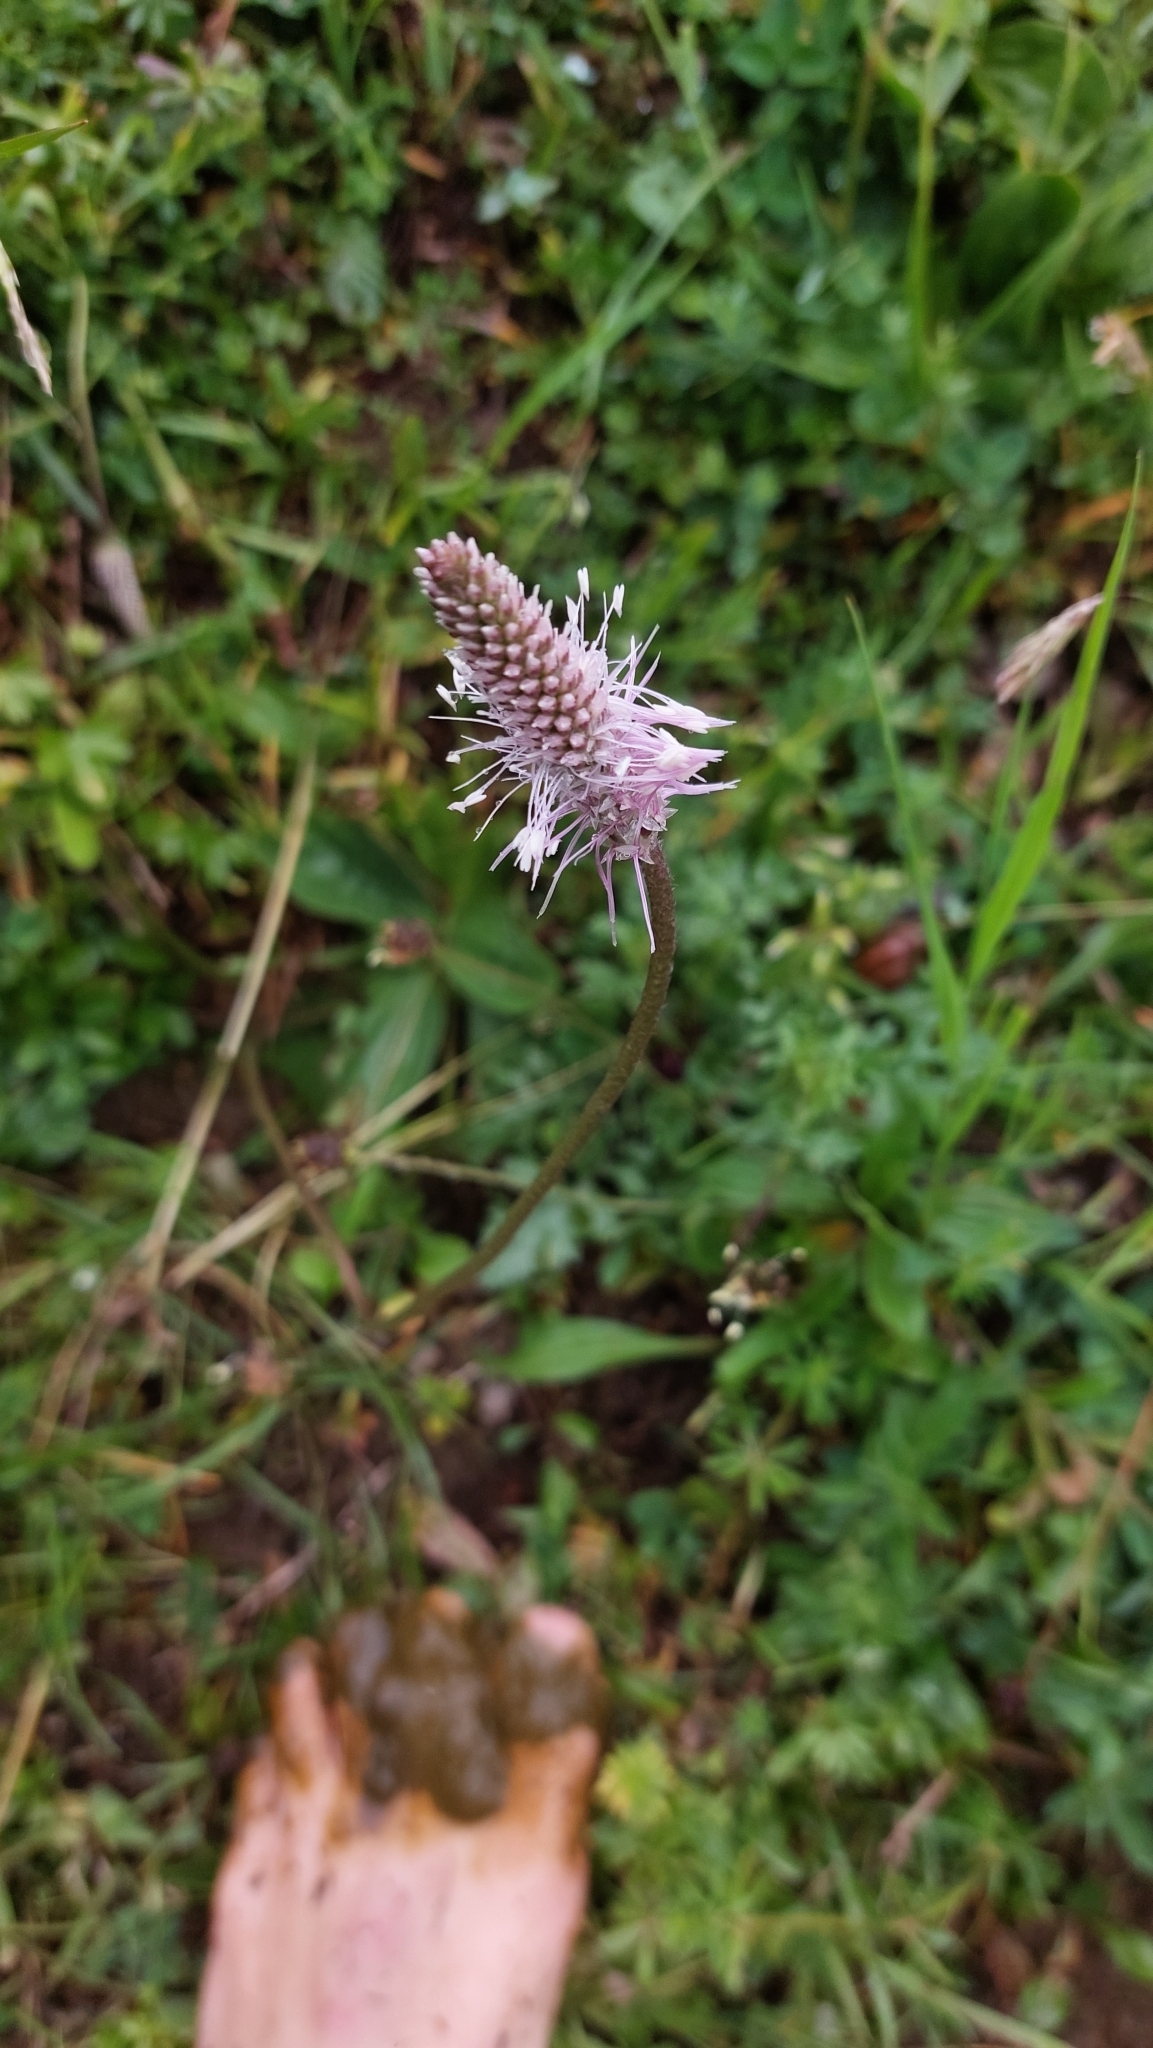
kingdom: Plantae
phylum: Tracheophyta
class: Magnoliopsida
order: Lamiales
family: Plantaginaceae
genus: Plantago
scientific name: Plantago media
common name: Hoary plantain
